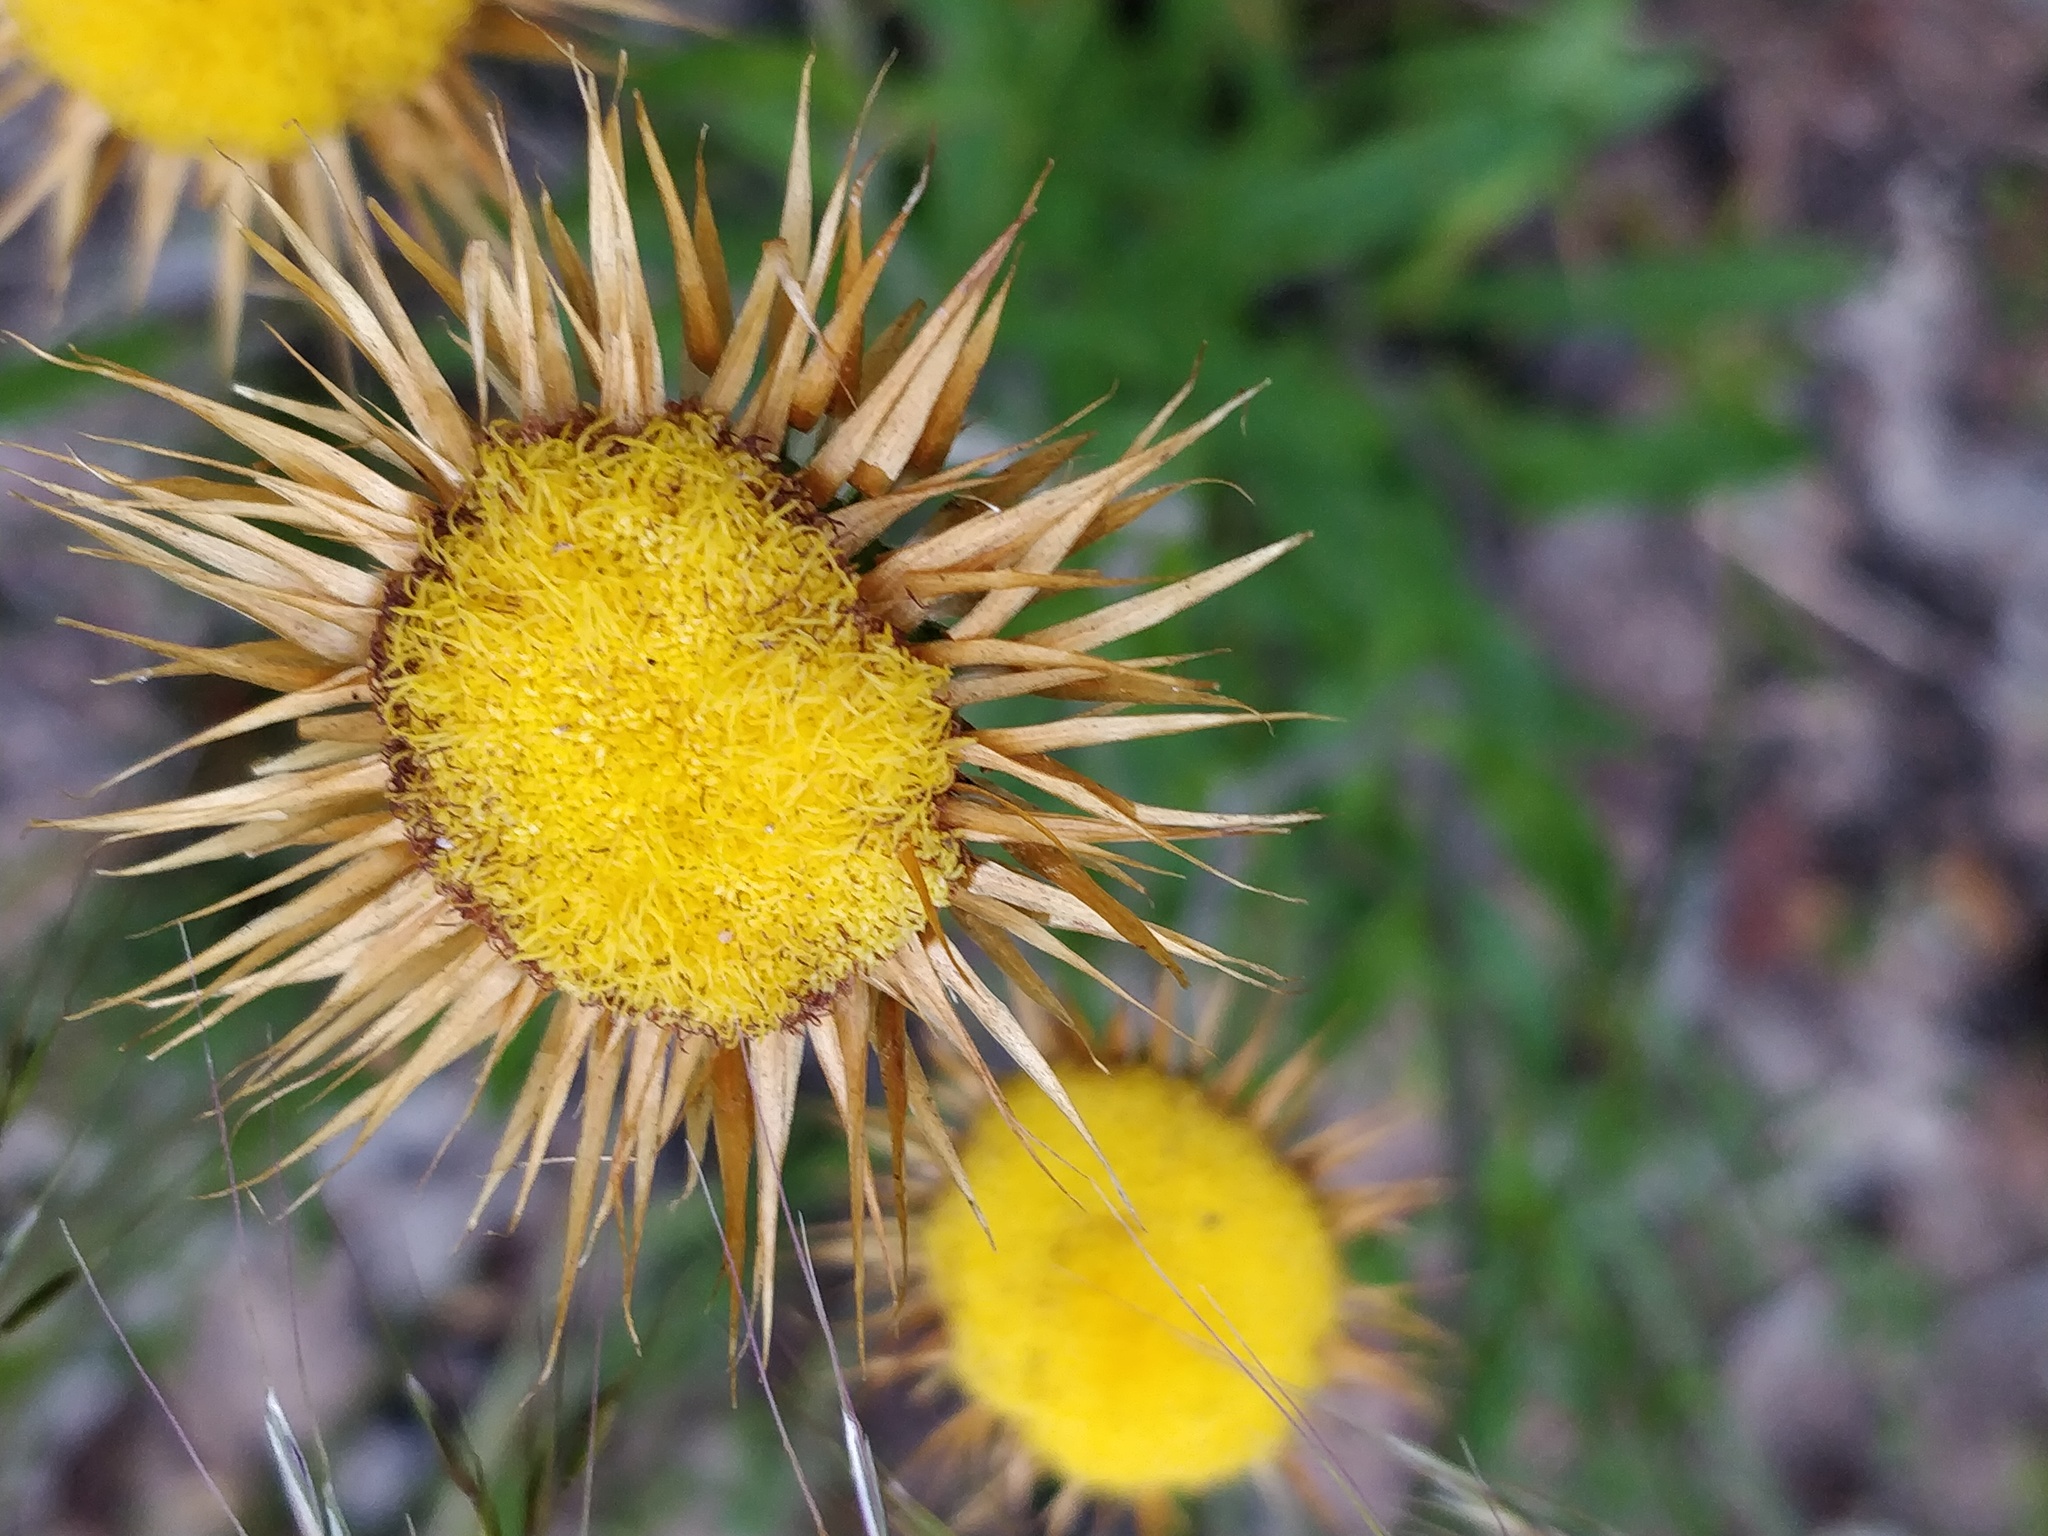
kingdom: Plantae
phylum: Tracheophyta
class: Magnoliopsida
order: Asterales
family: Asteraceae
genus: Coronidium
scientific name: Coronidium oxylepis
